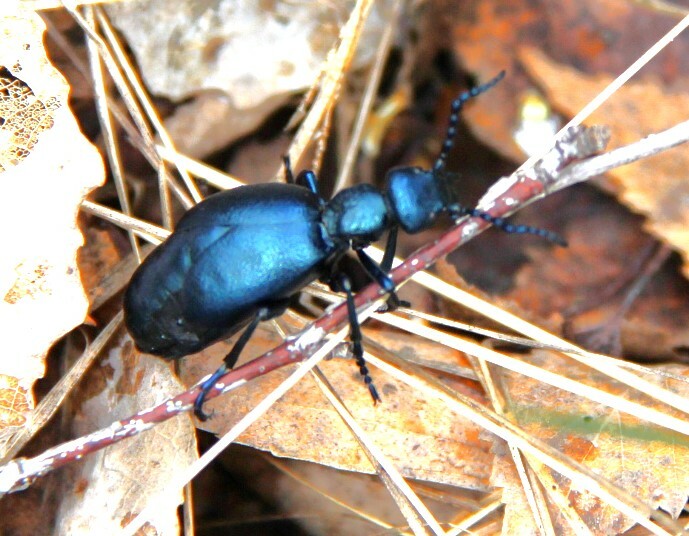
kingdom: Animalia
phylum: Arthropoda
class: Insecta
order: Coleoptera
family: Meloidae
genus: Meloe
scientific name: Meloe violaceus
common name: Violet oil-beetle
